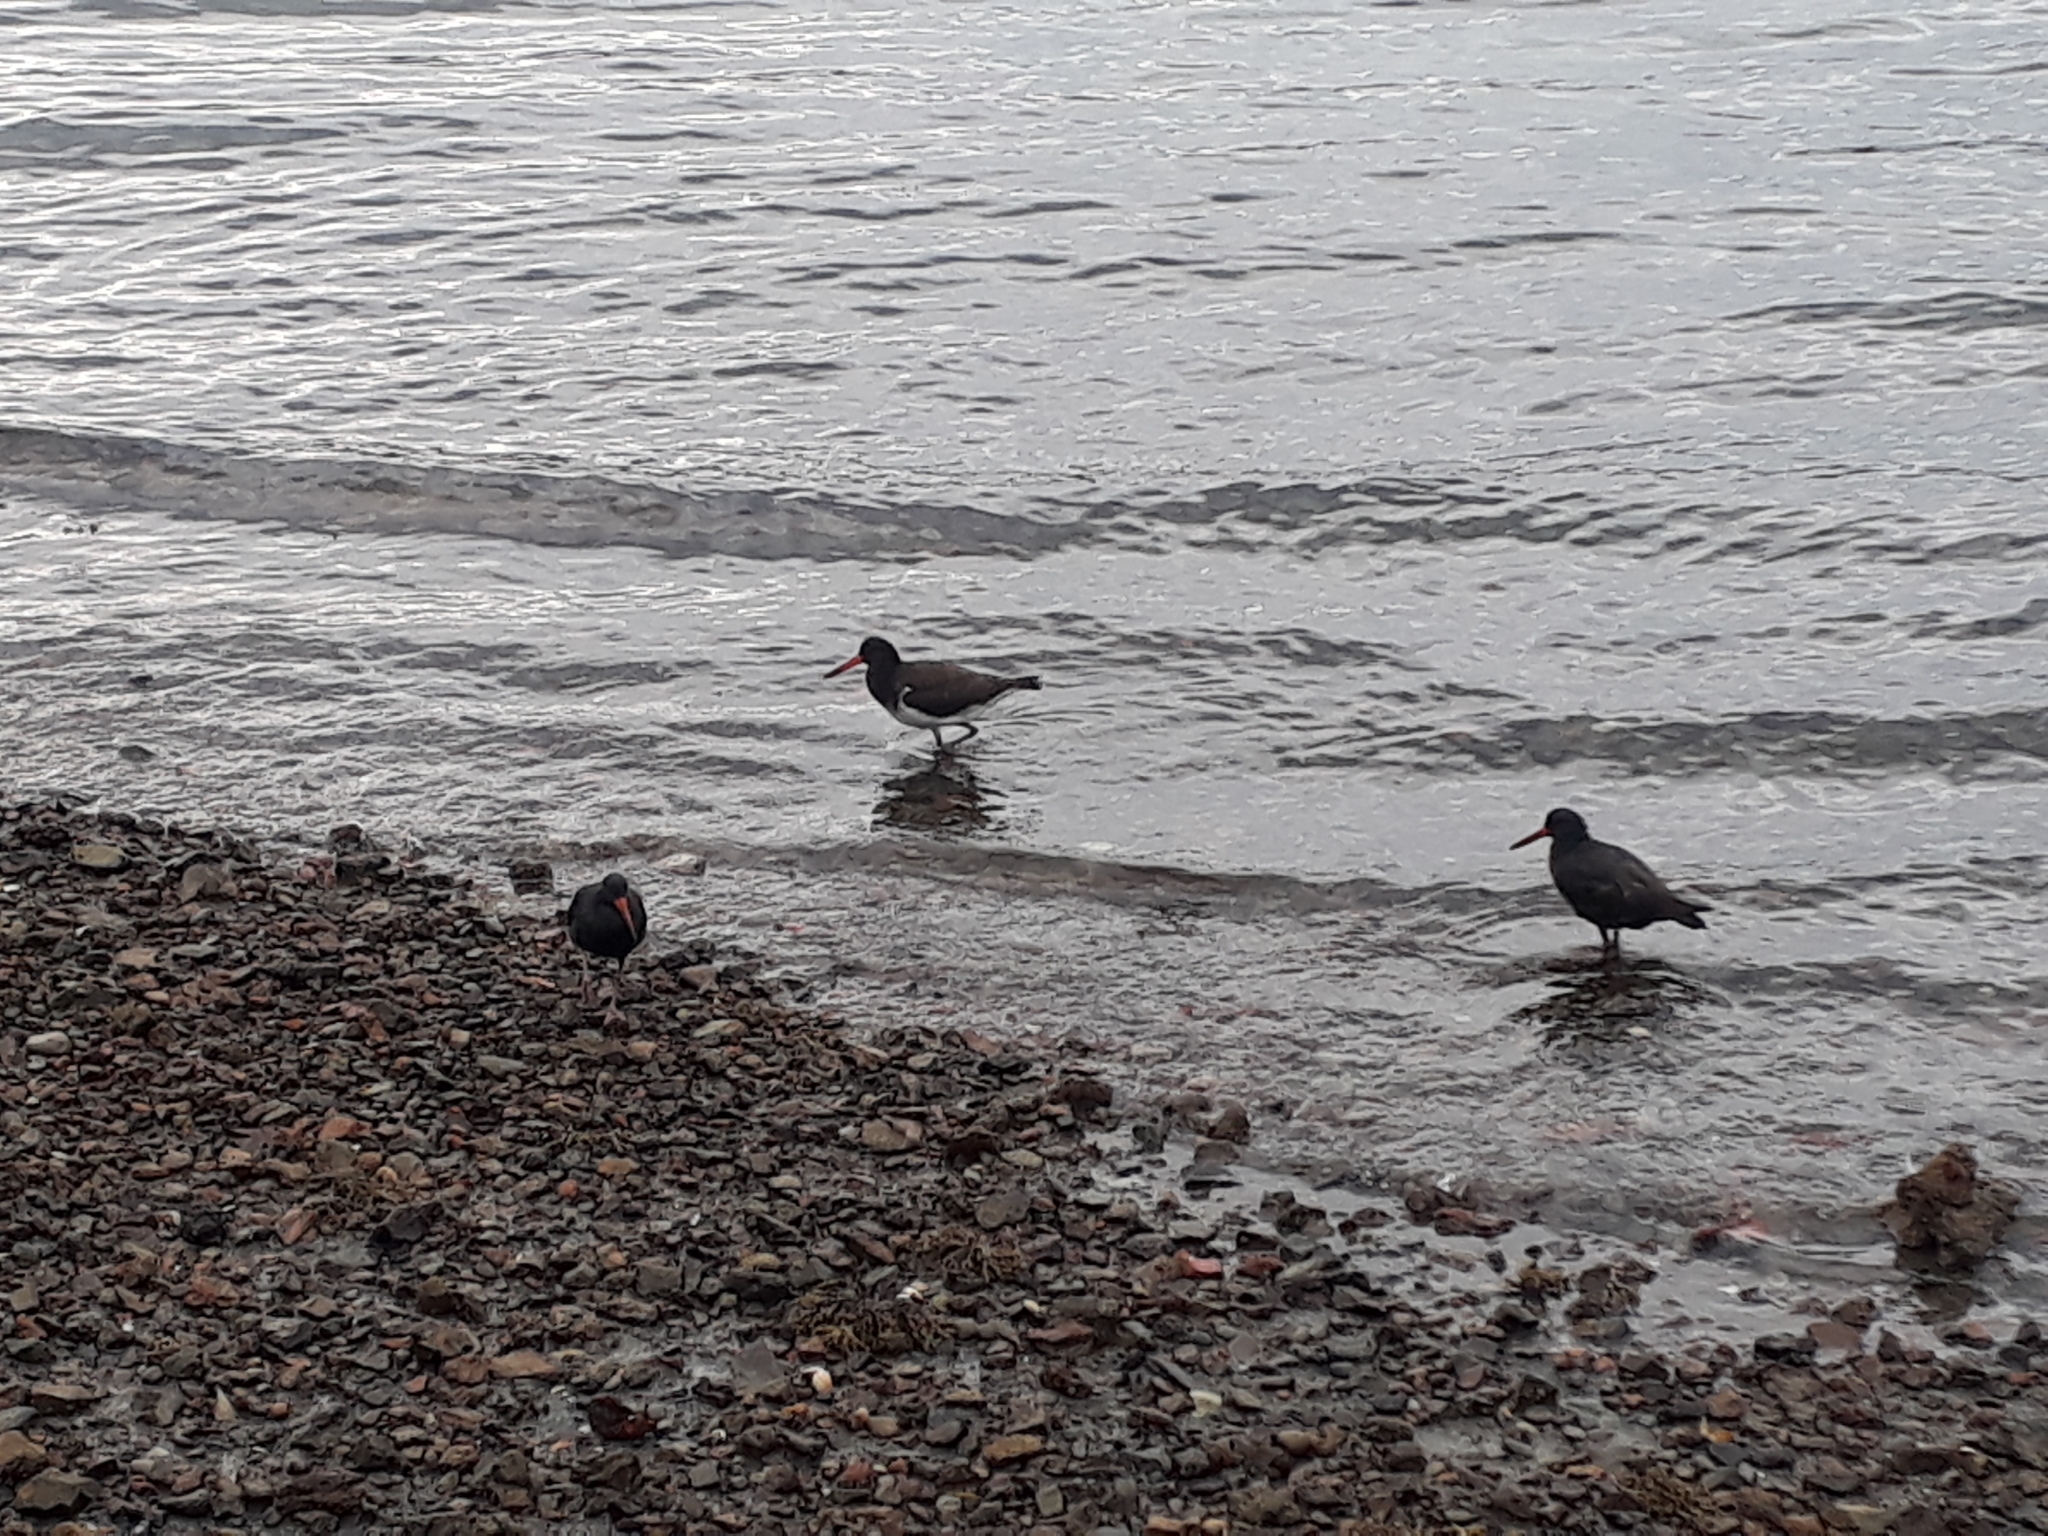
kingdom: Animalia
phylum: Chordata
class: Aves
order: Charadriiformes
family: Haematopodidae
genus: Haematopus
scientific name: Haematopus unicolor
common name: Variable oystercatcher
